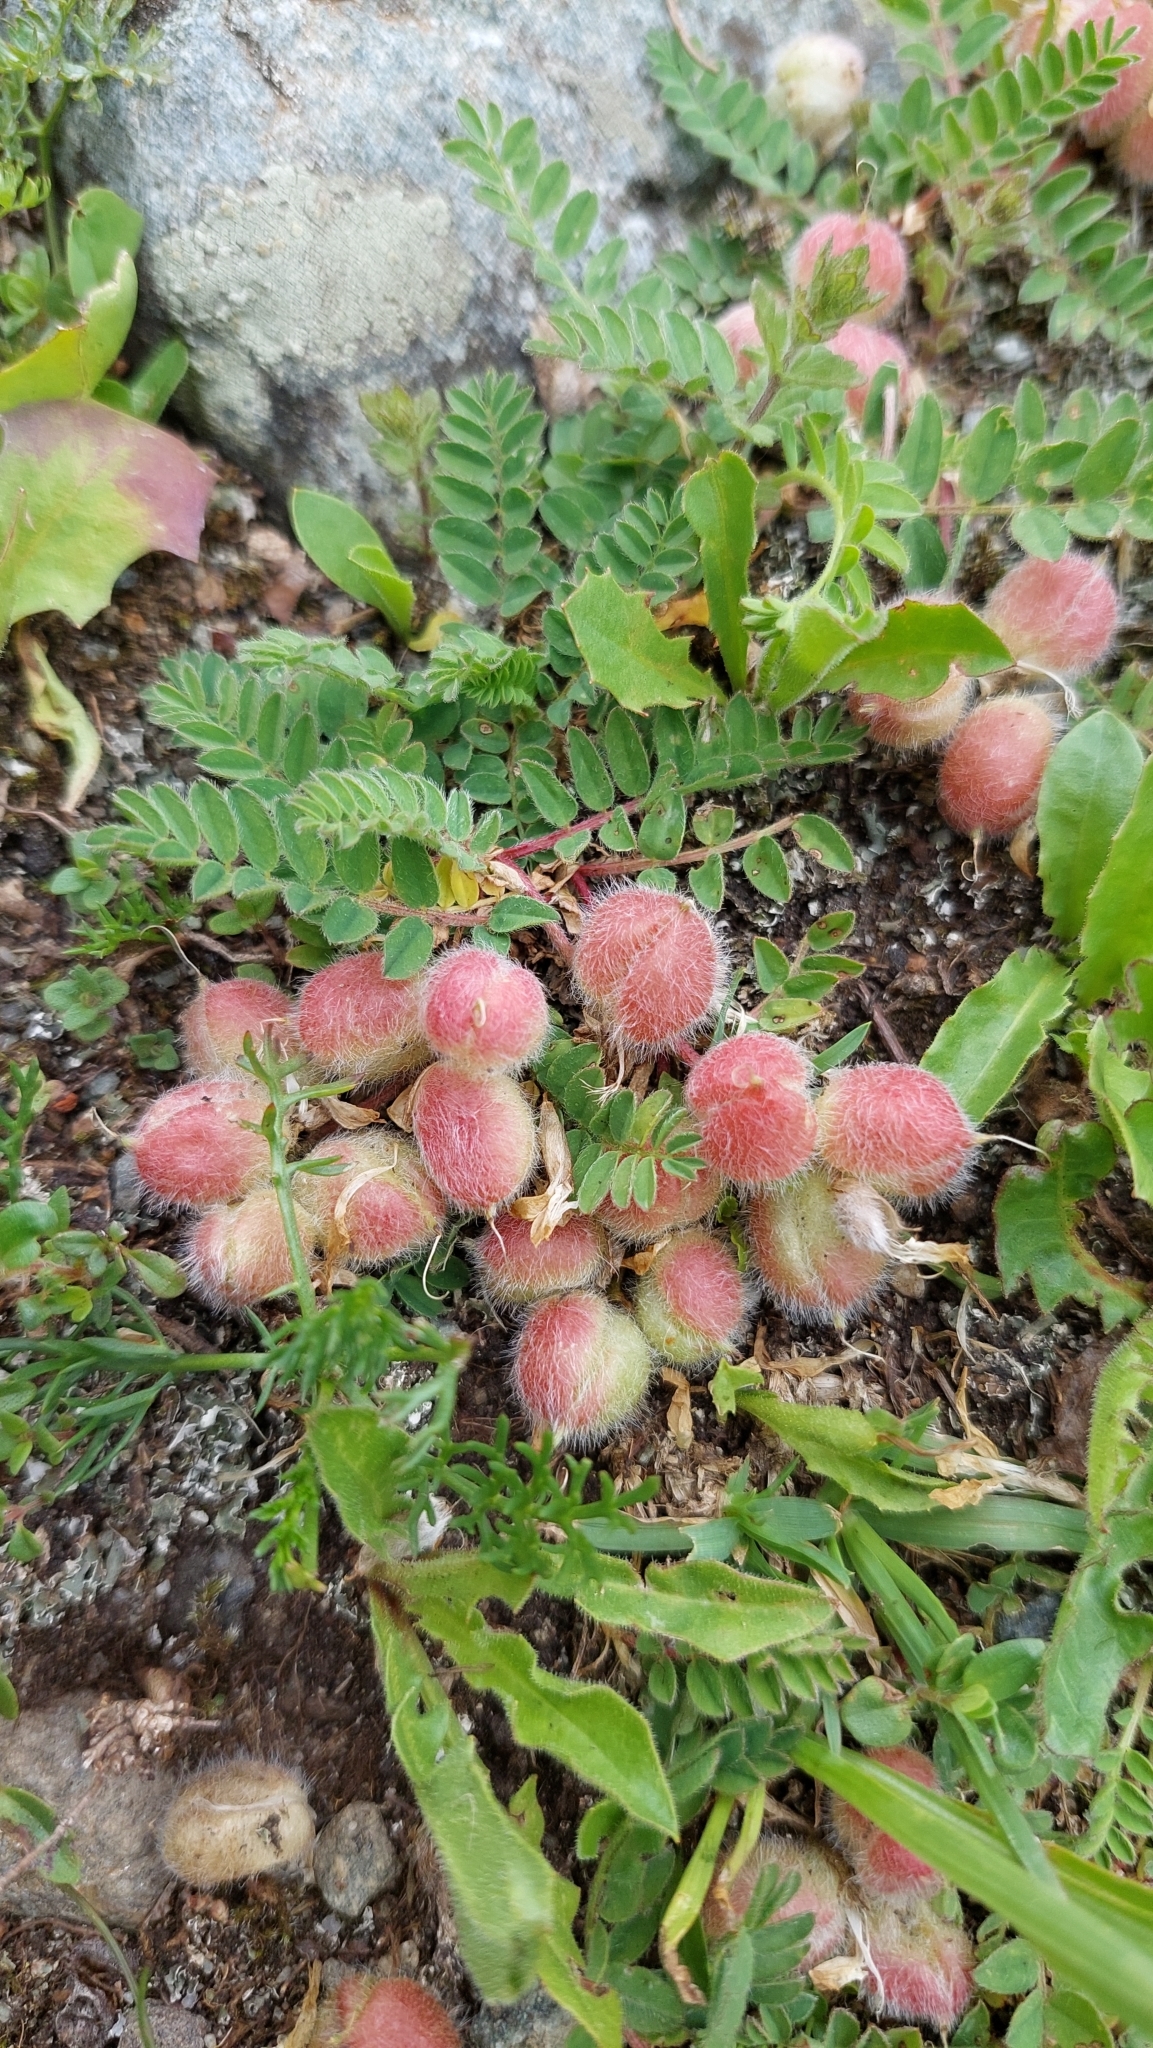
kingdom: Plantae
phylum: Tracheophyta
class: Magnoliopsida
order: Fabales
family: Fabaceae
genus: Astragalus
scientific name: Astragalus oreades
